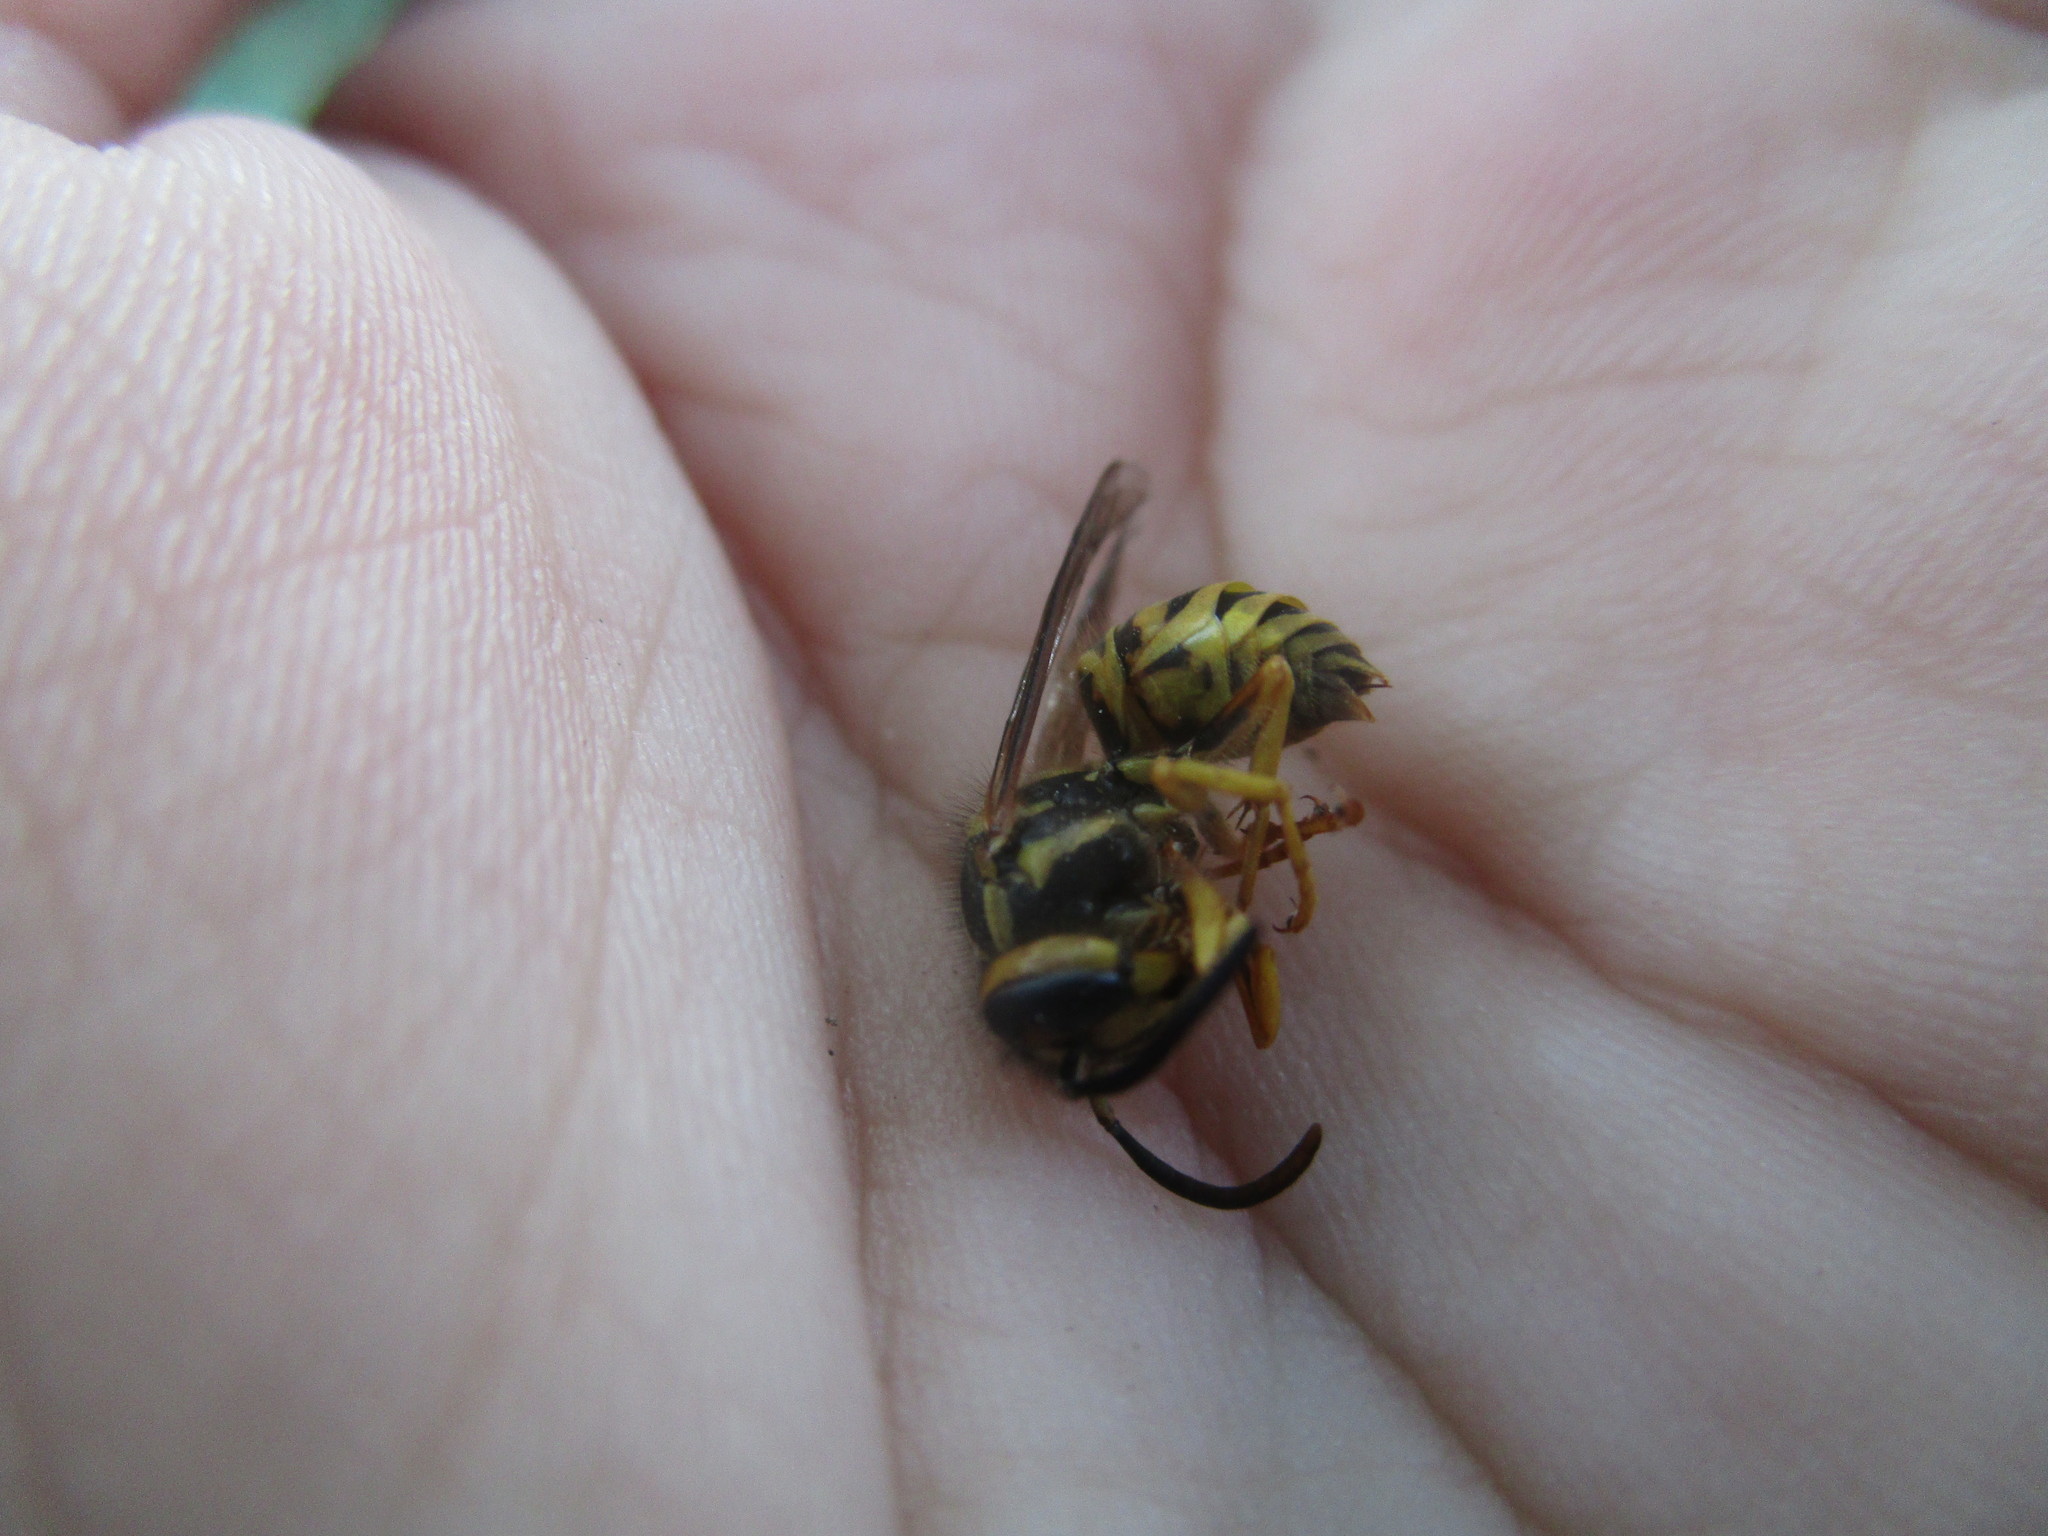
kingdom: Animalia
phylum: Arthropoda
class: Insecta
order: Hymenoptera
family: Vespidae
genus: Vespula
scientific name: Vespula squamosa
